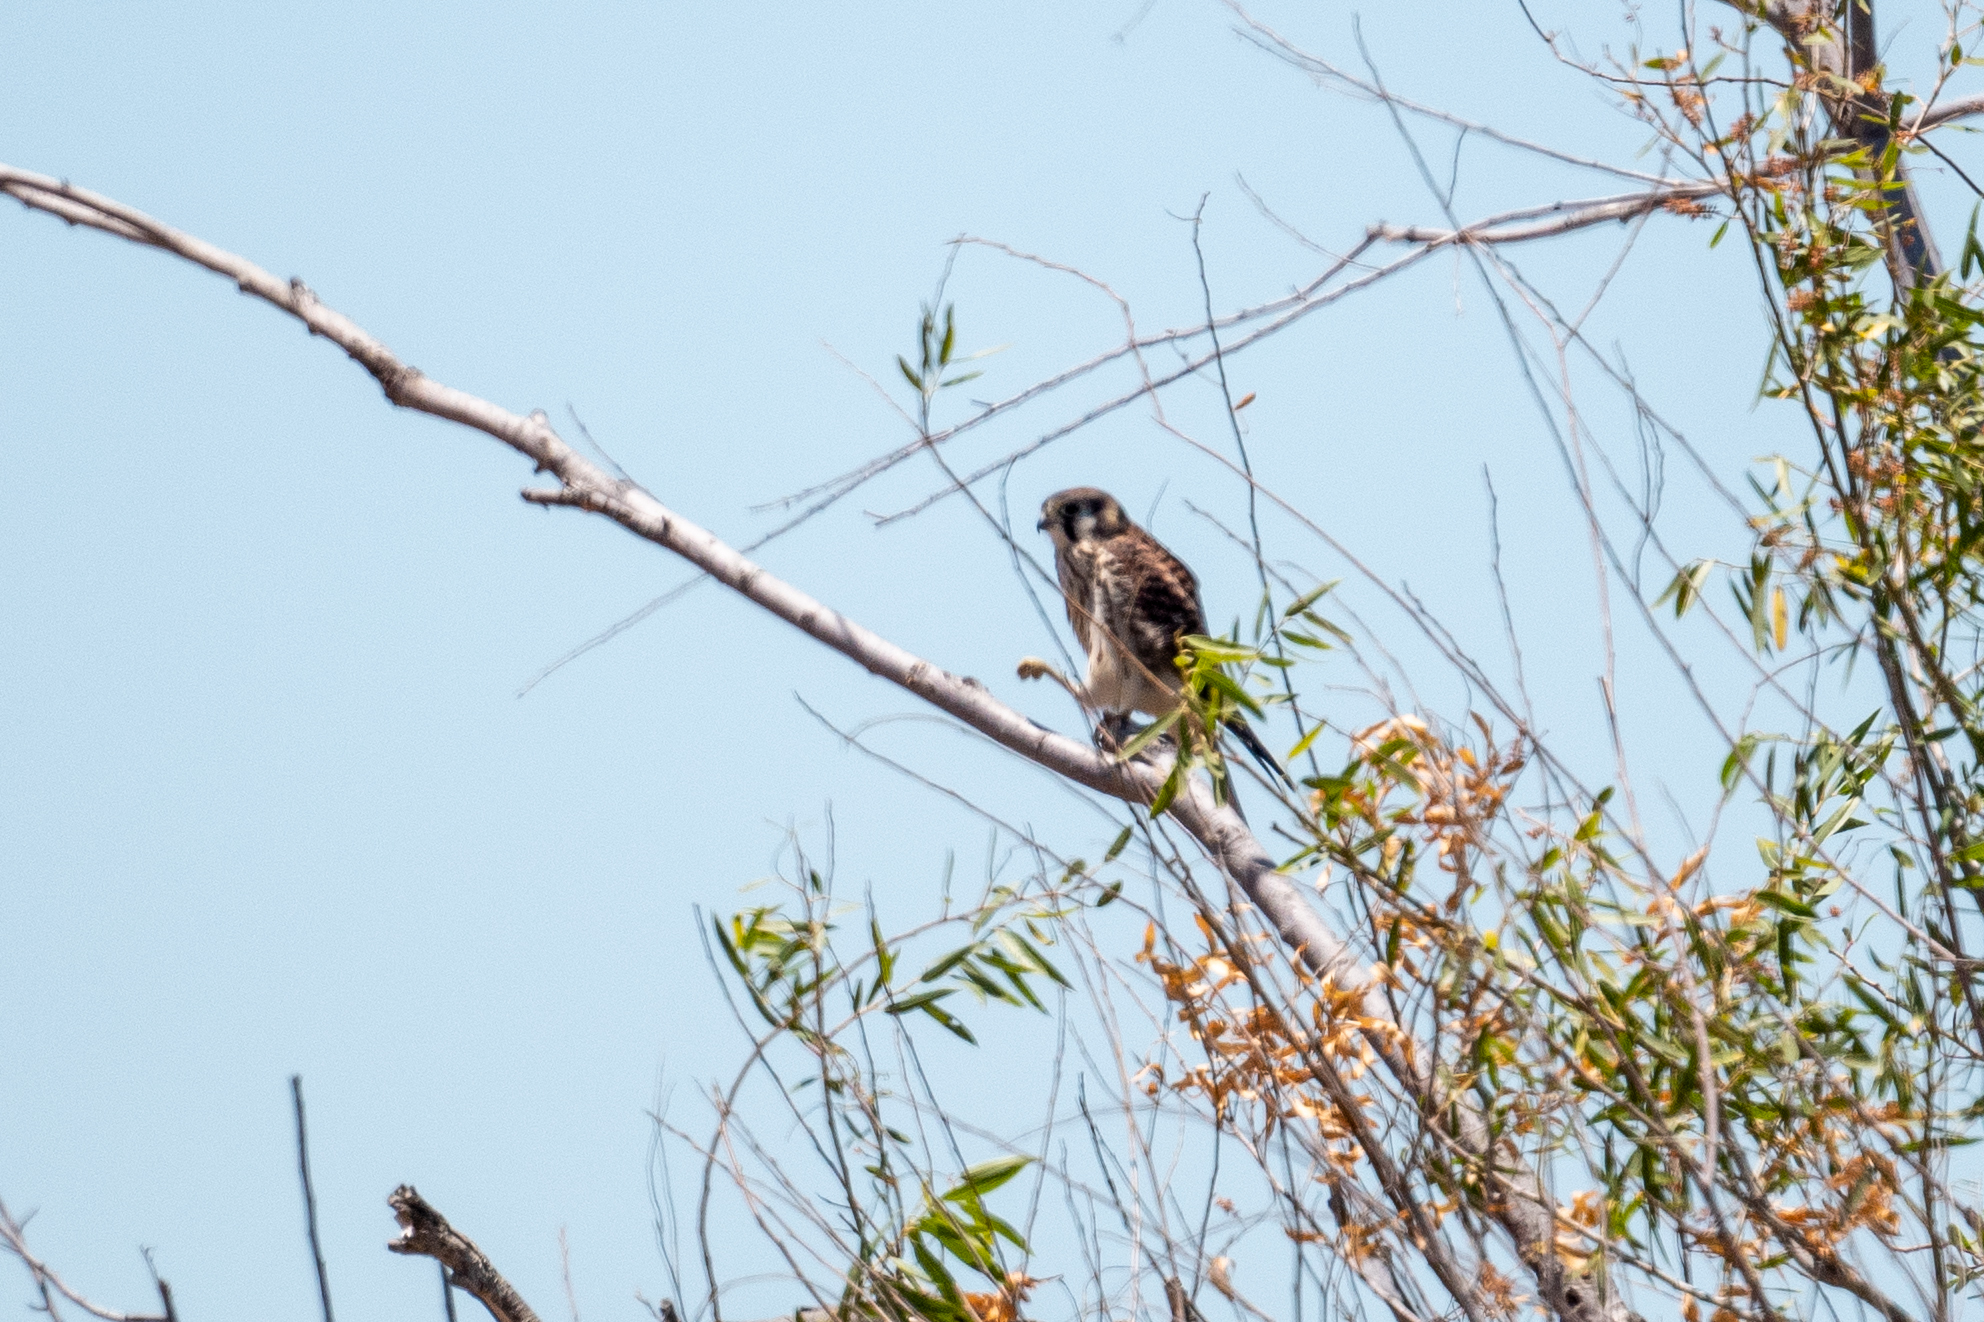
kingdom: Animalia
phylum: Chordata
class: Aves
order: Falconiformes
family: Falconidae
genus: Falco
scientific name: Falco sparverius
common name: American kestrel
